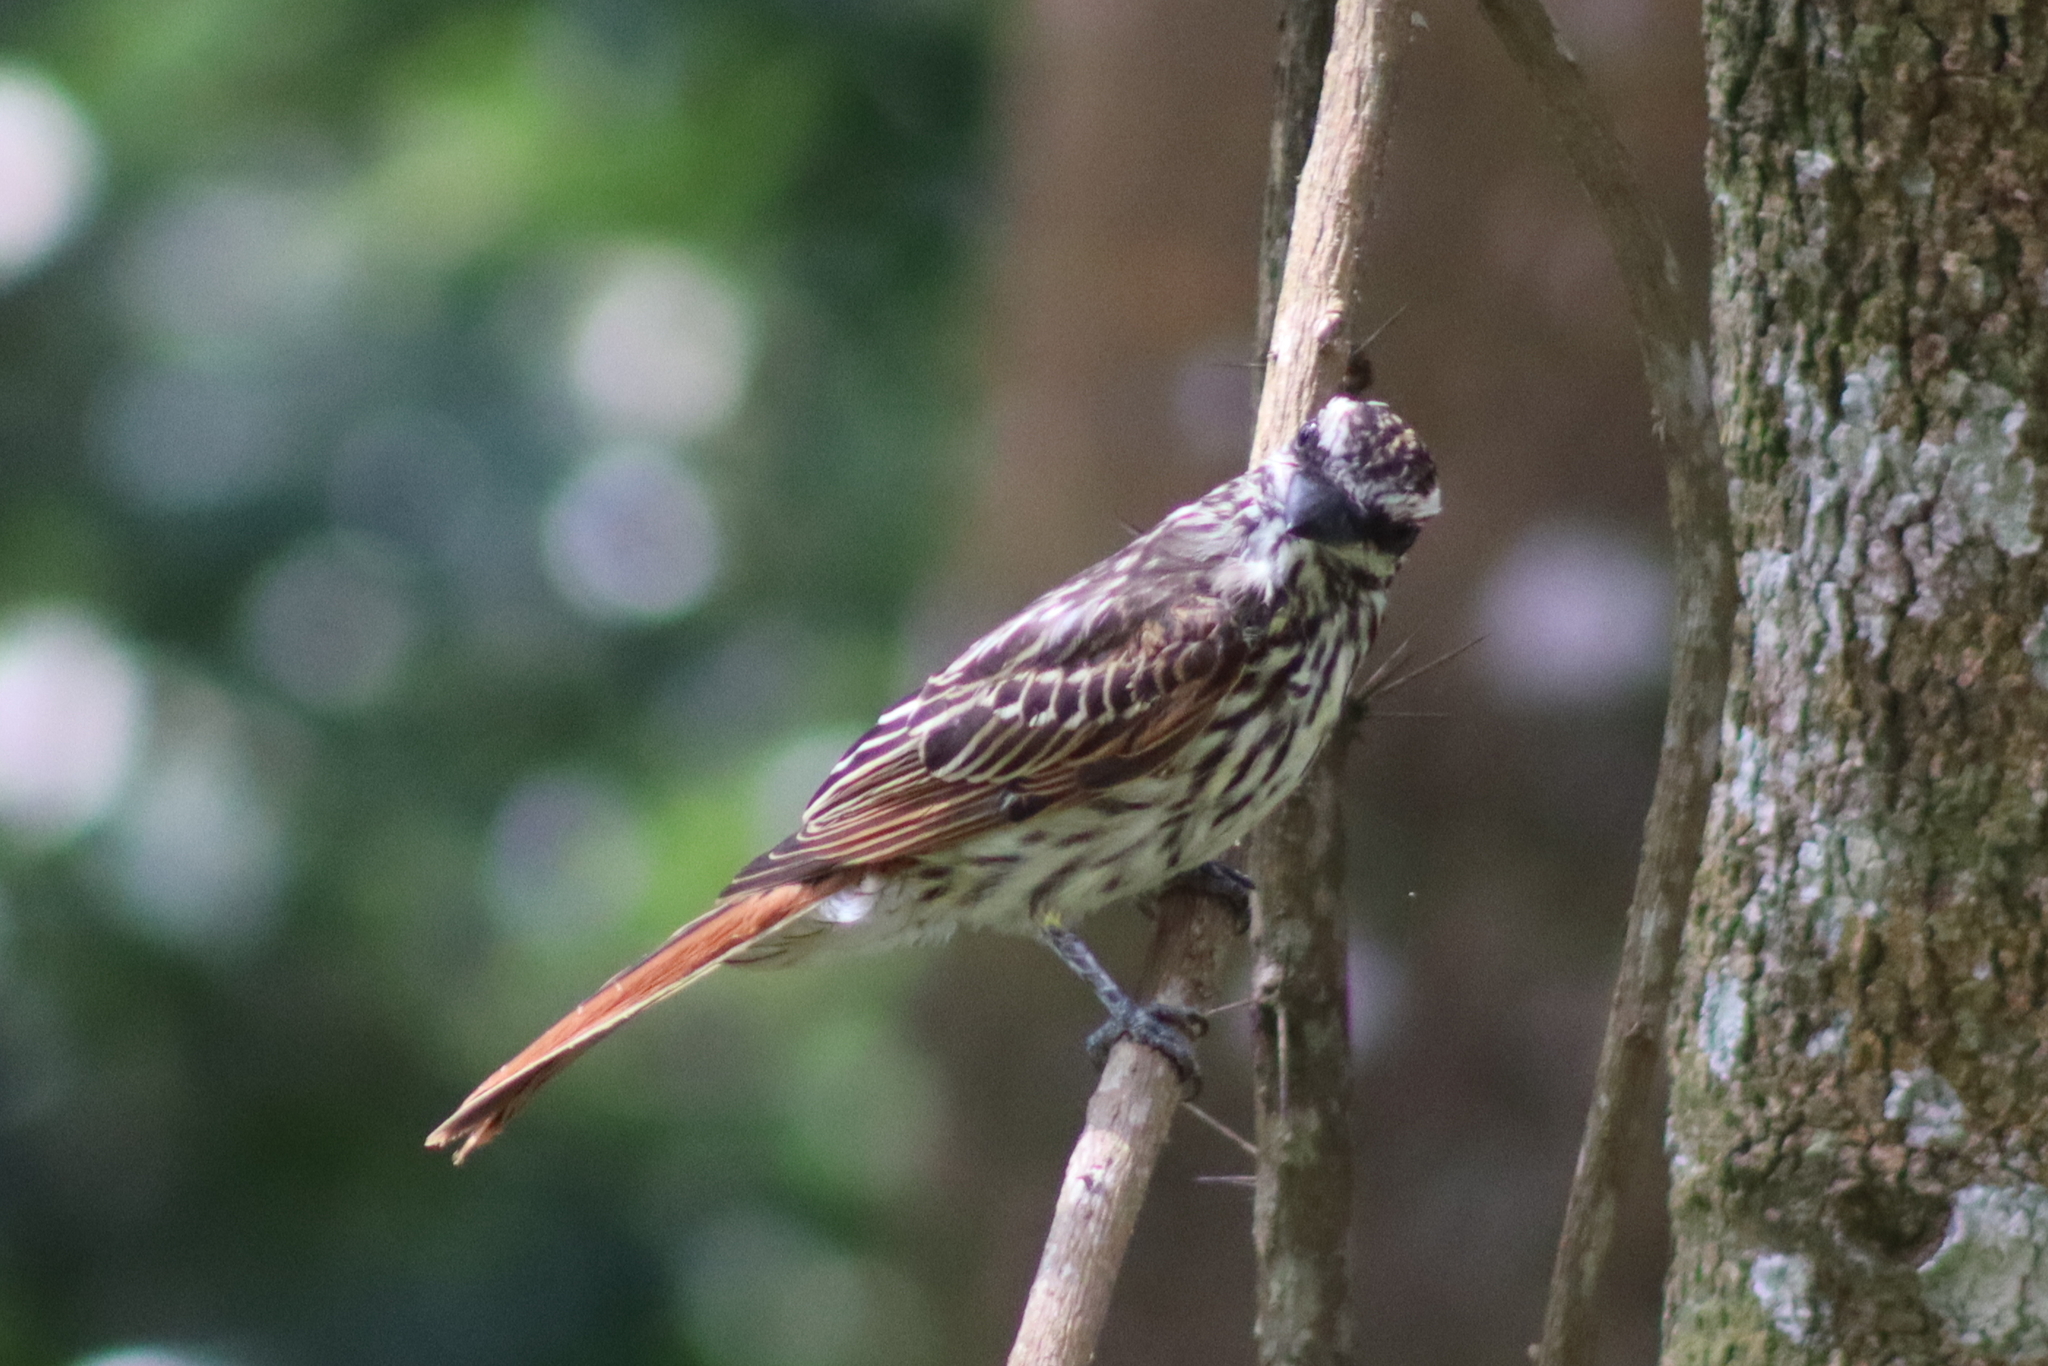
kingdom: Animalia
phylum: Chordata
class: Aves
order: Passeriformes
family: Tyrannidae
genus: Myiodynastes
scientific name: Myiodynastes maculatus
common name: Streaked flycatcher
